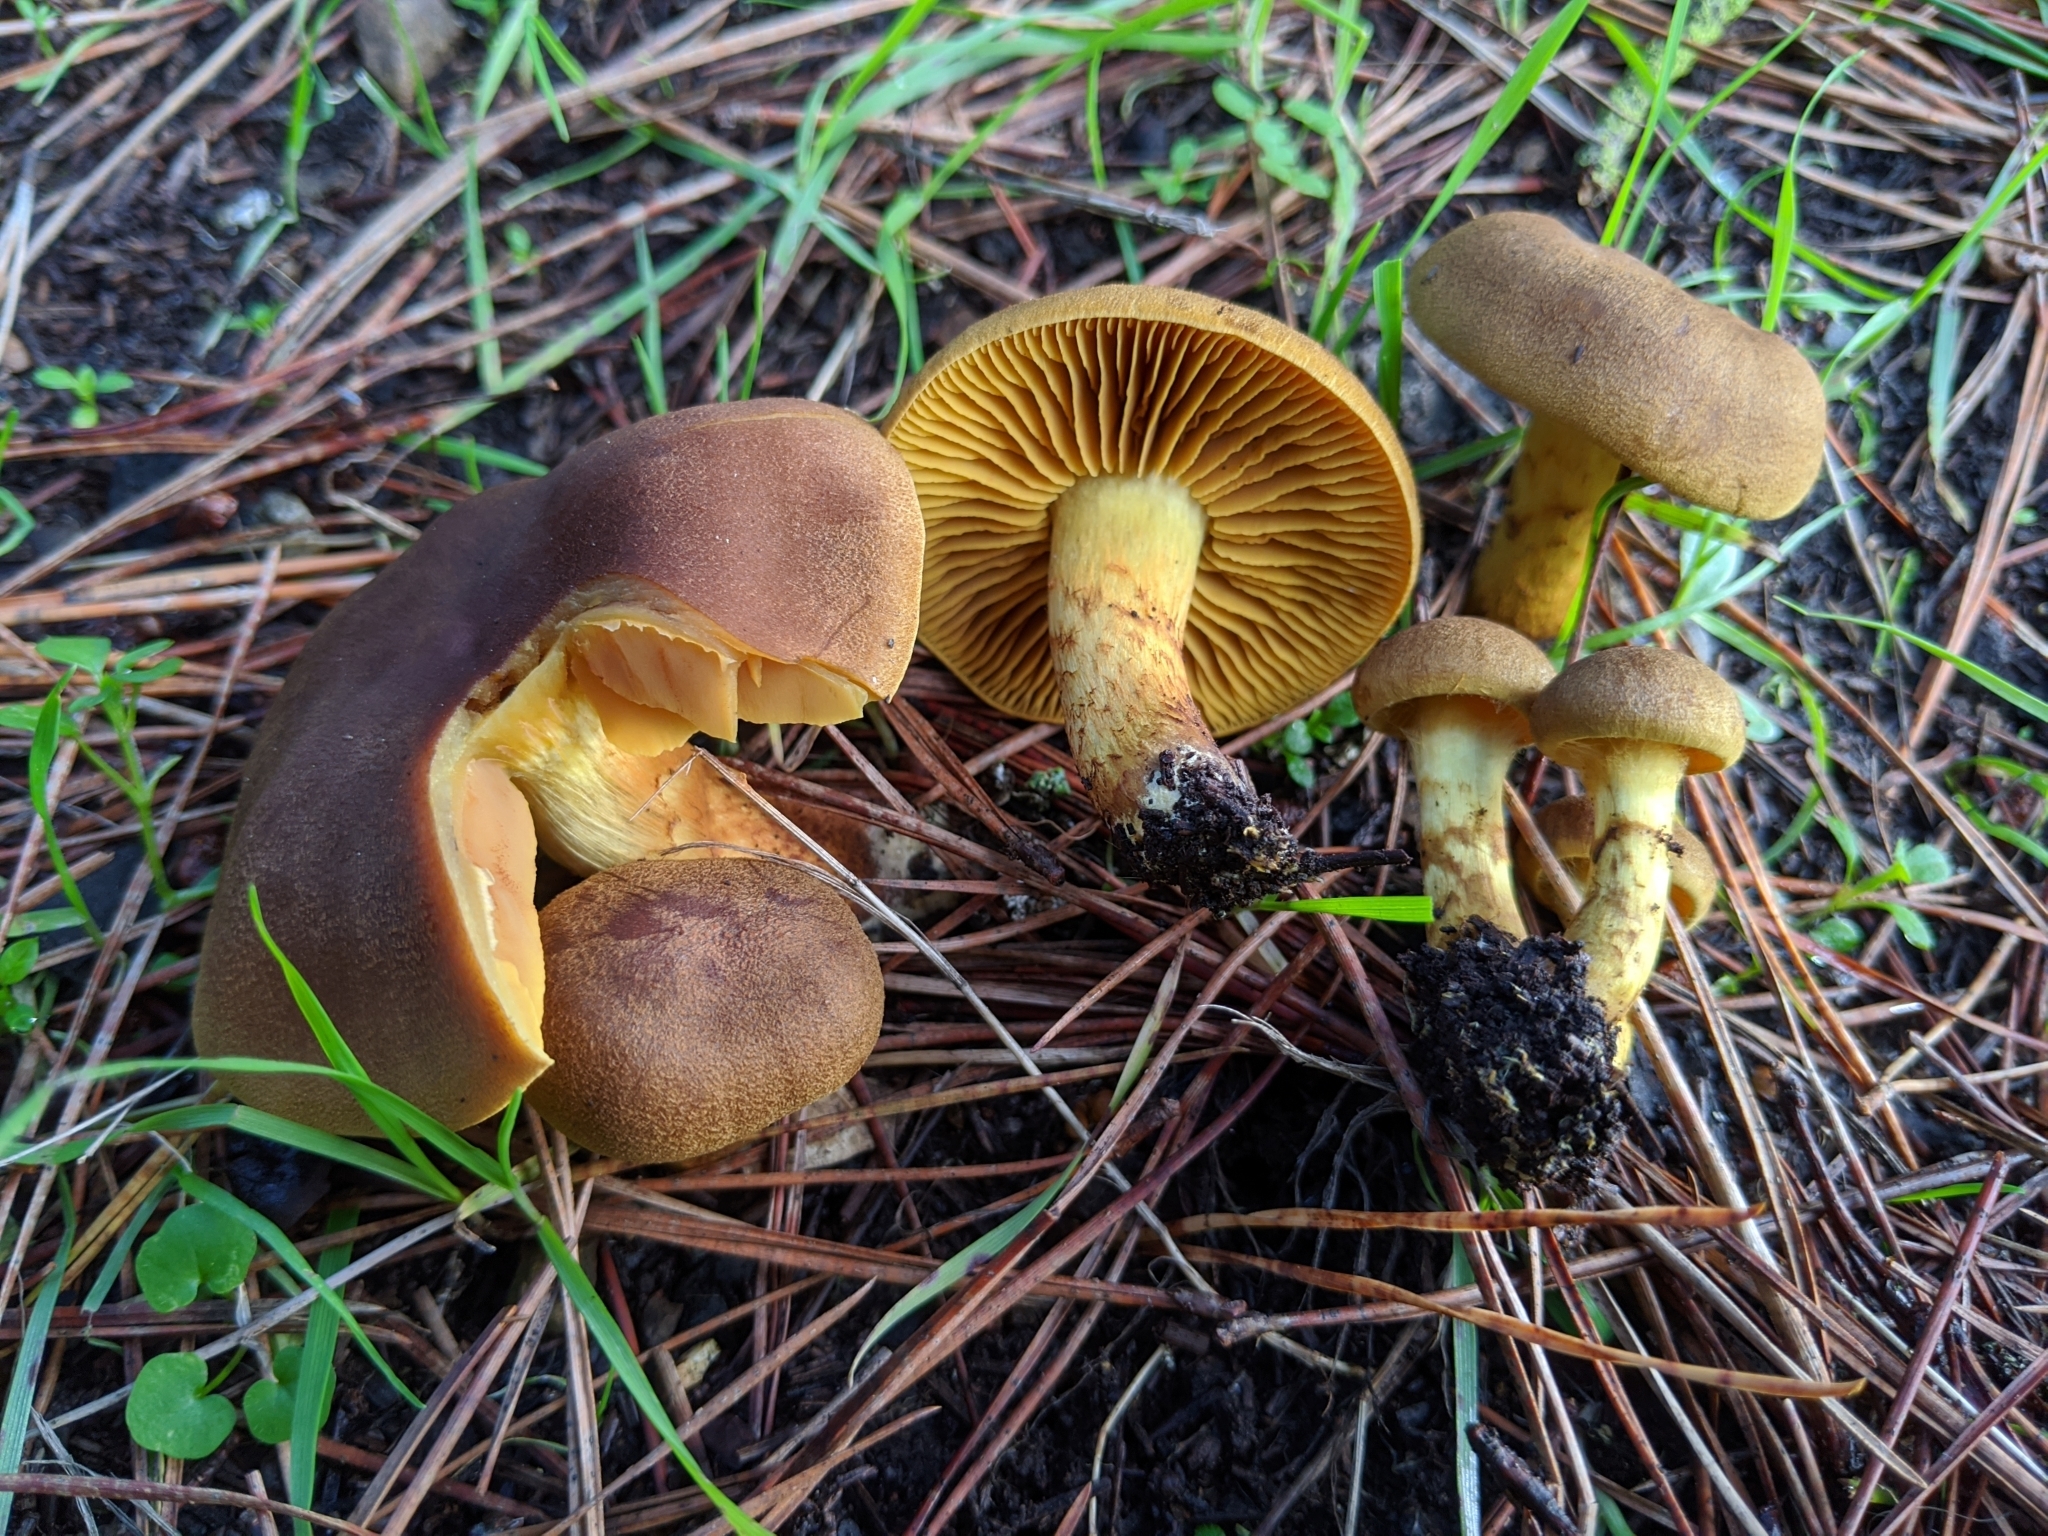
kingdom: Fungi
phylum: Basidiomycota
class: Agaricomycetes
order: Agaricales
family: Cortinariaceae
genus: Cortinarius
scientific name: Cortinarius thiersii
